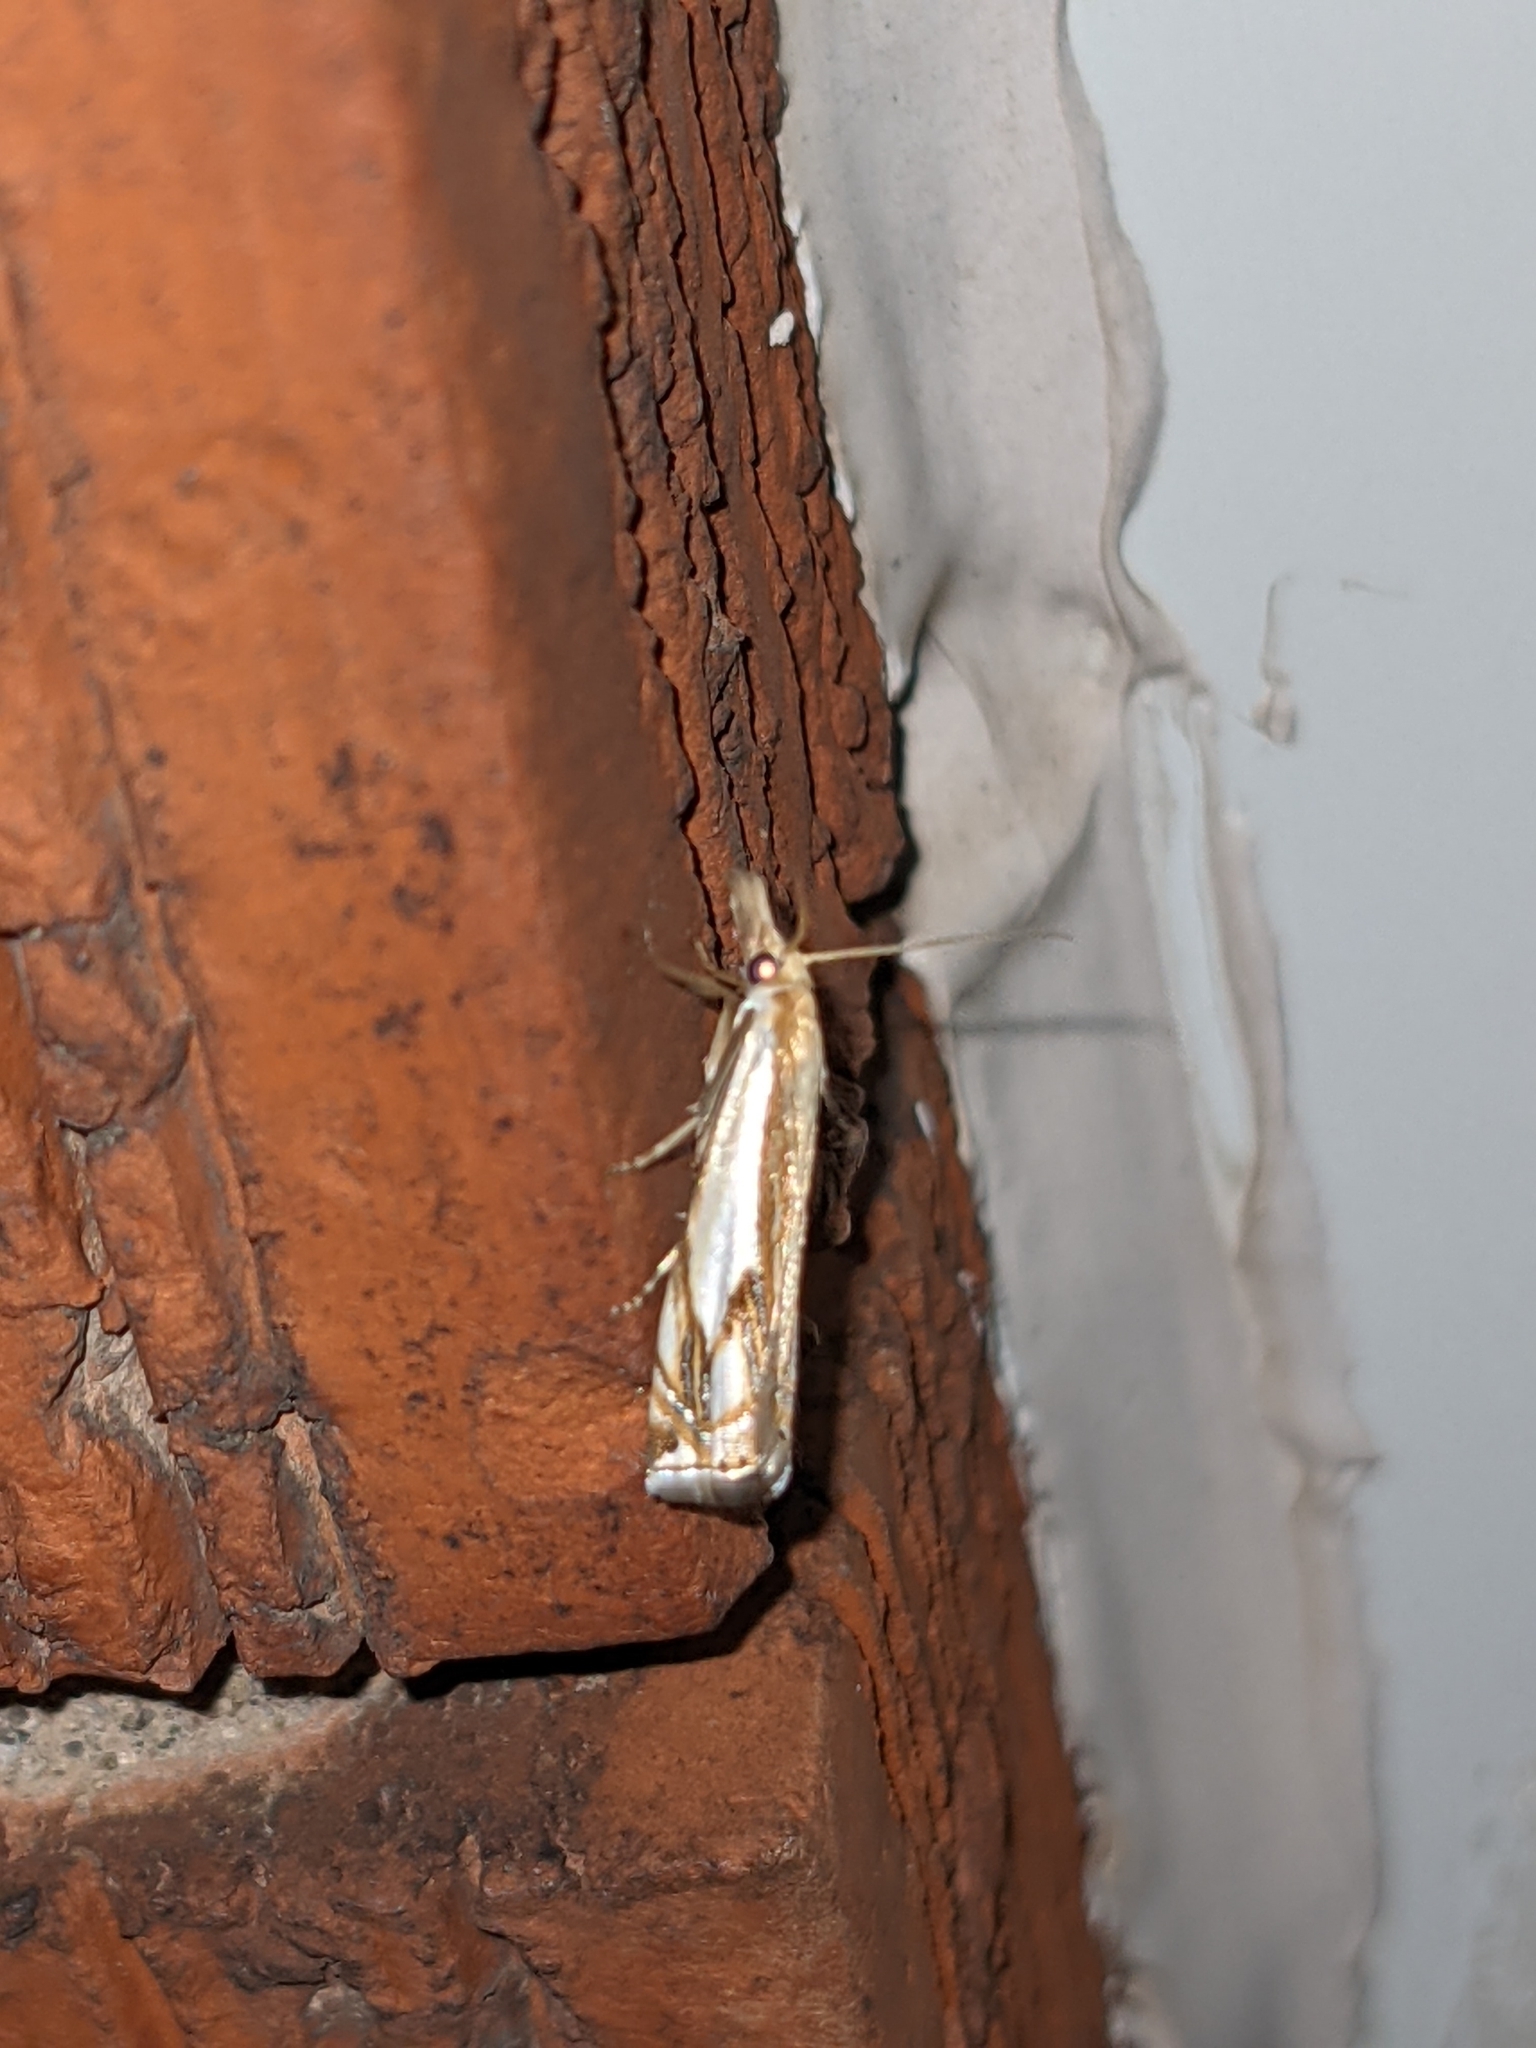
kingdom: Animalia
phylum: Arthropoda
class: Insecta
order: Lepidoptera
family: Crambidae
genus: Crambus
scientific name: Crambus agitatellus
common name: Double-banded grass-veneer
